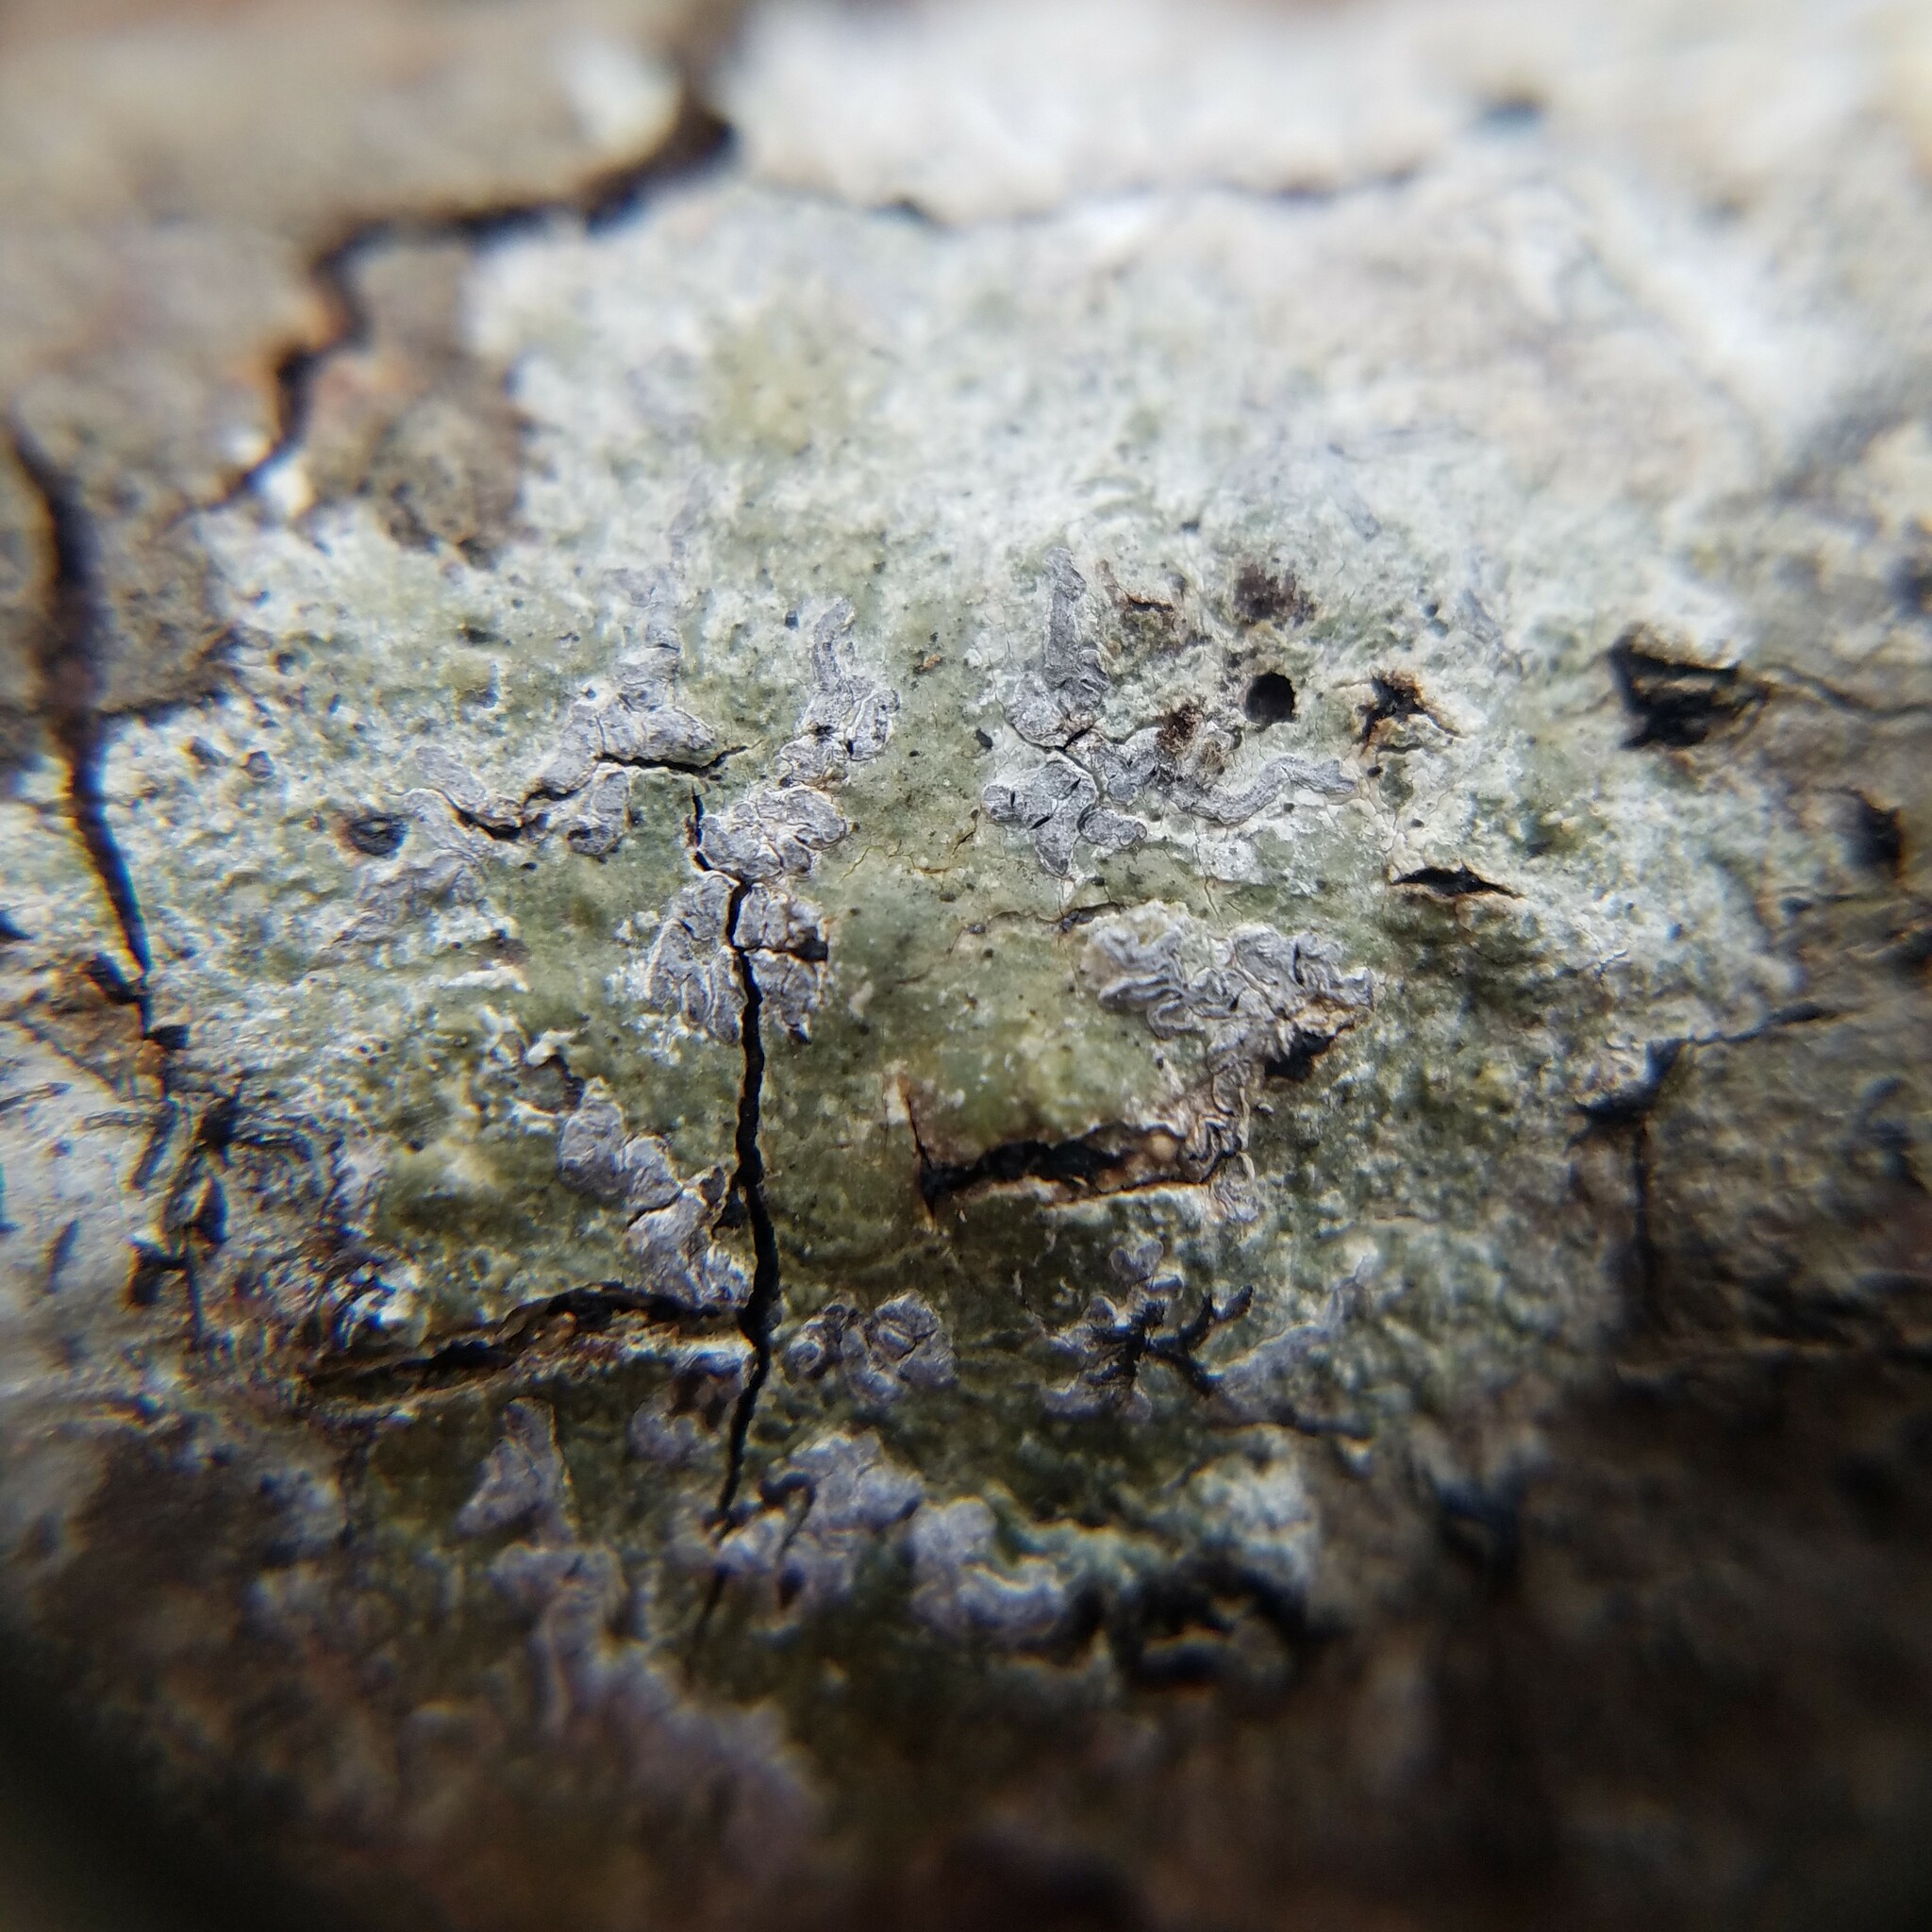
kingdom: Fungi
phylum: Ascomycota
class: Lecanoromycetes
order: Ostropales
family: Graphidaceae
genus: Creographa
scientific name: Creographa brasiliensis
